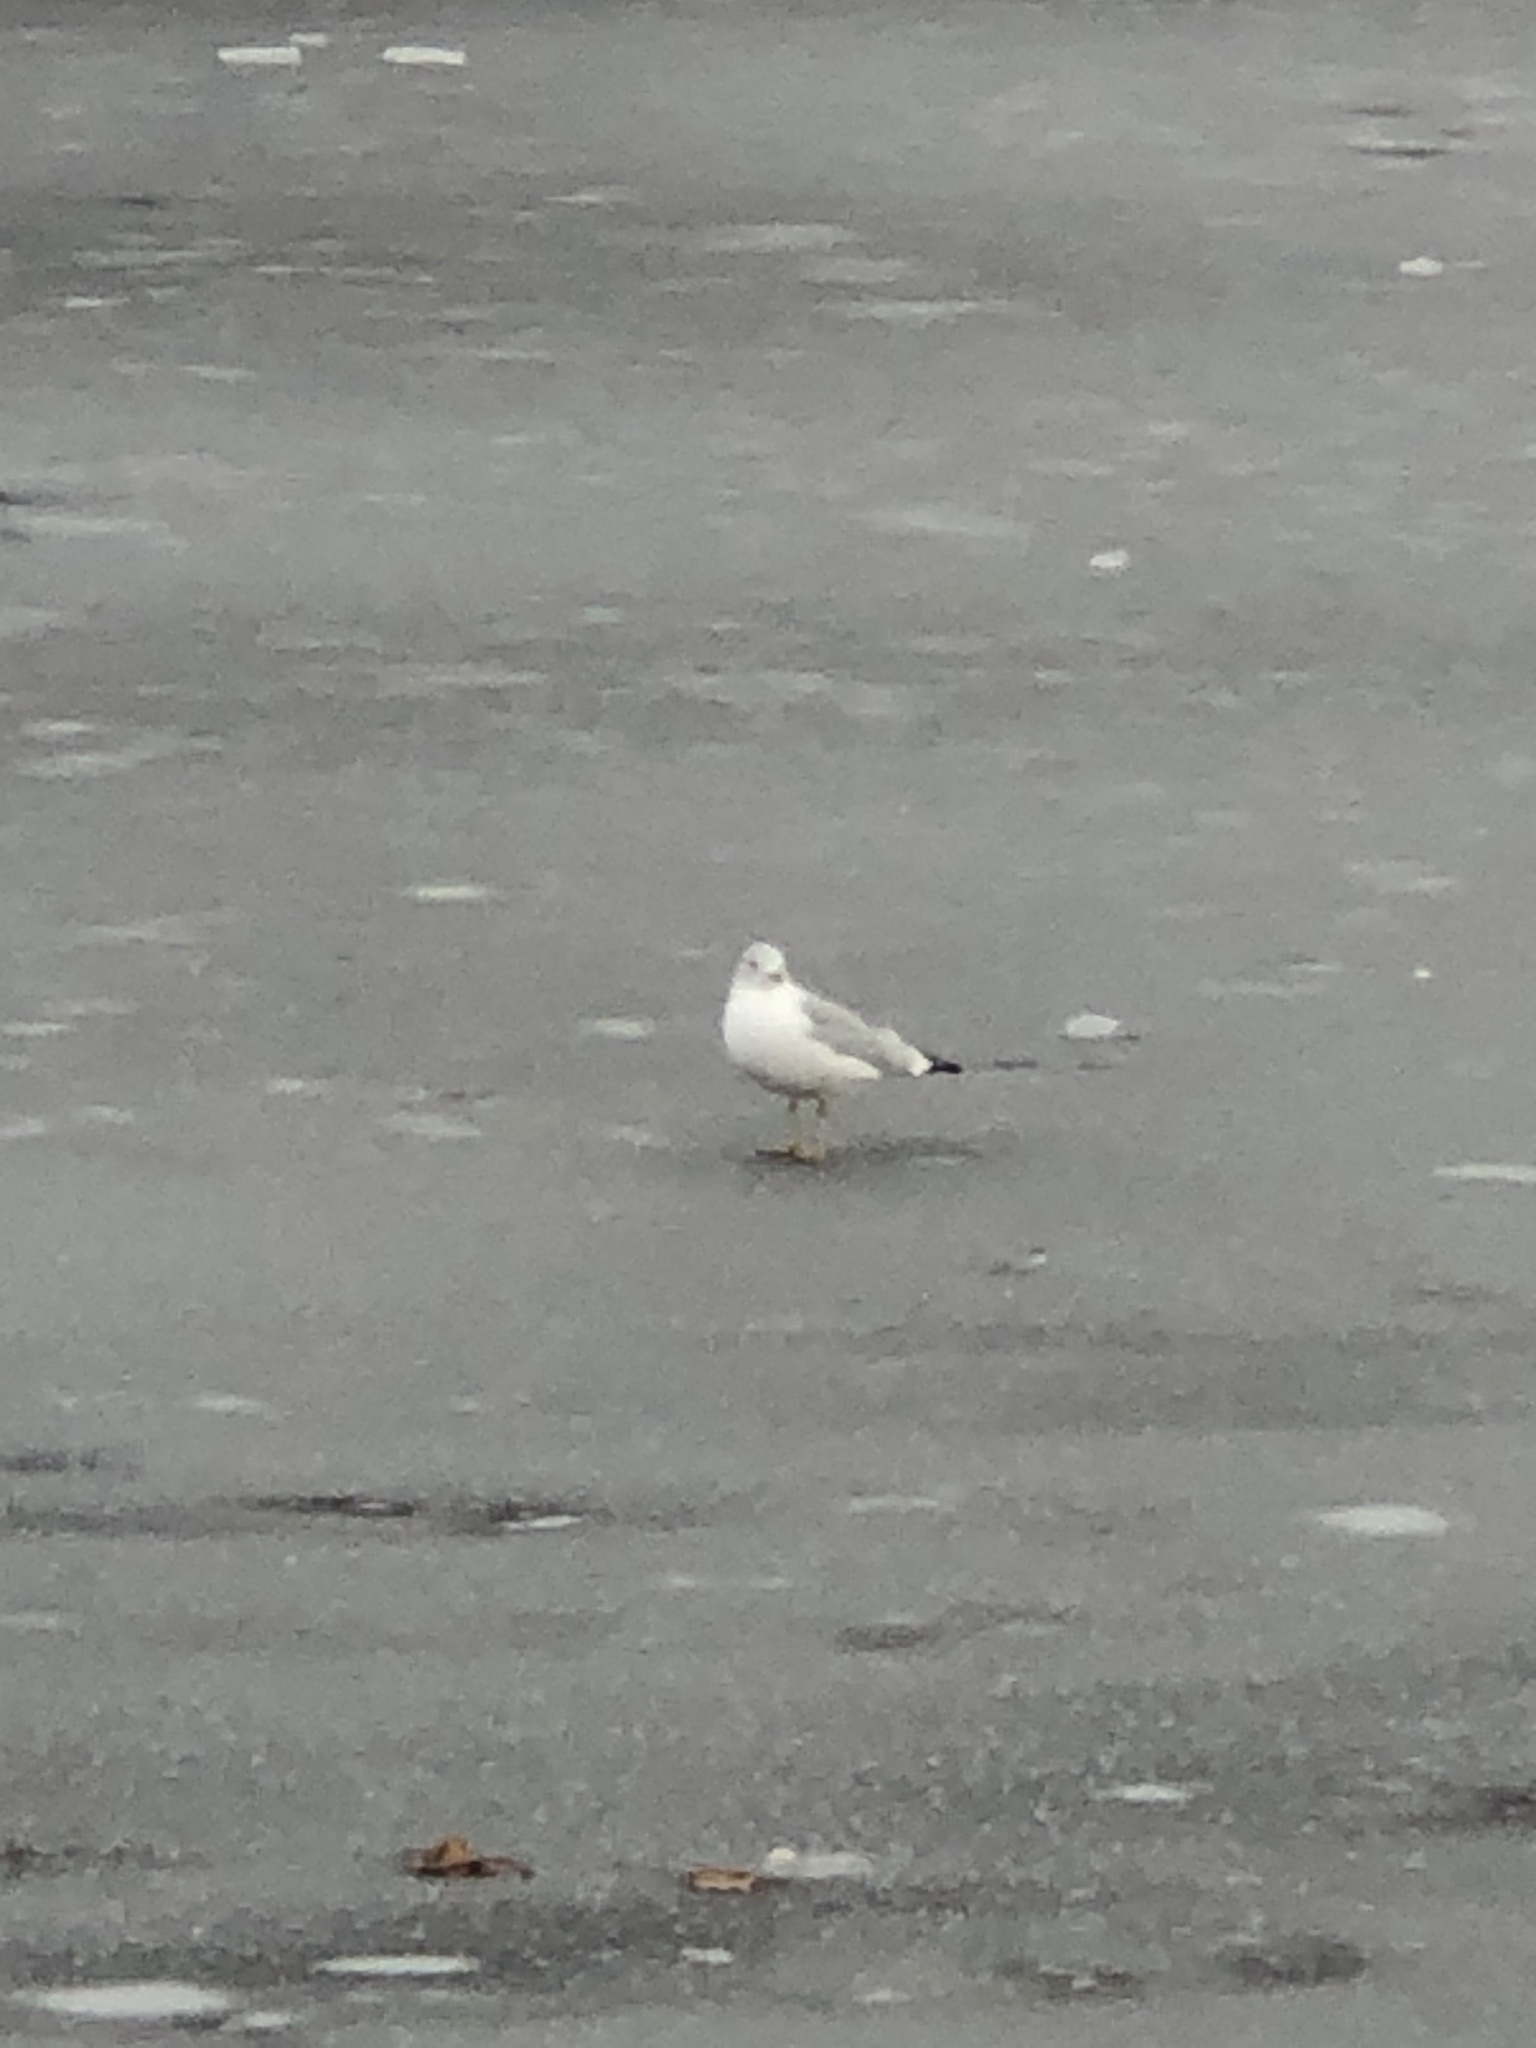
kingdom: Animalia
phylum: Chordata
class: Aves
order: Charadriiformes
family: Laridae
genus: Larus
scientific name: Larus delawarensis
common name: Ring-billed gull
